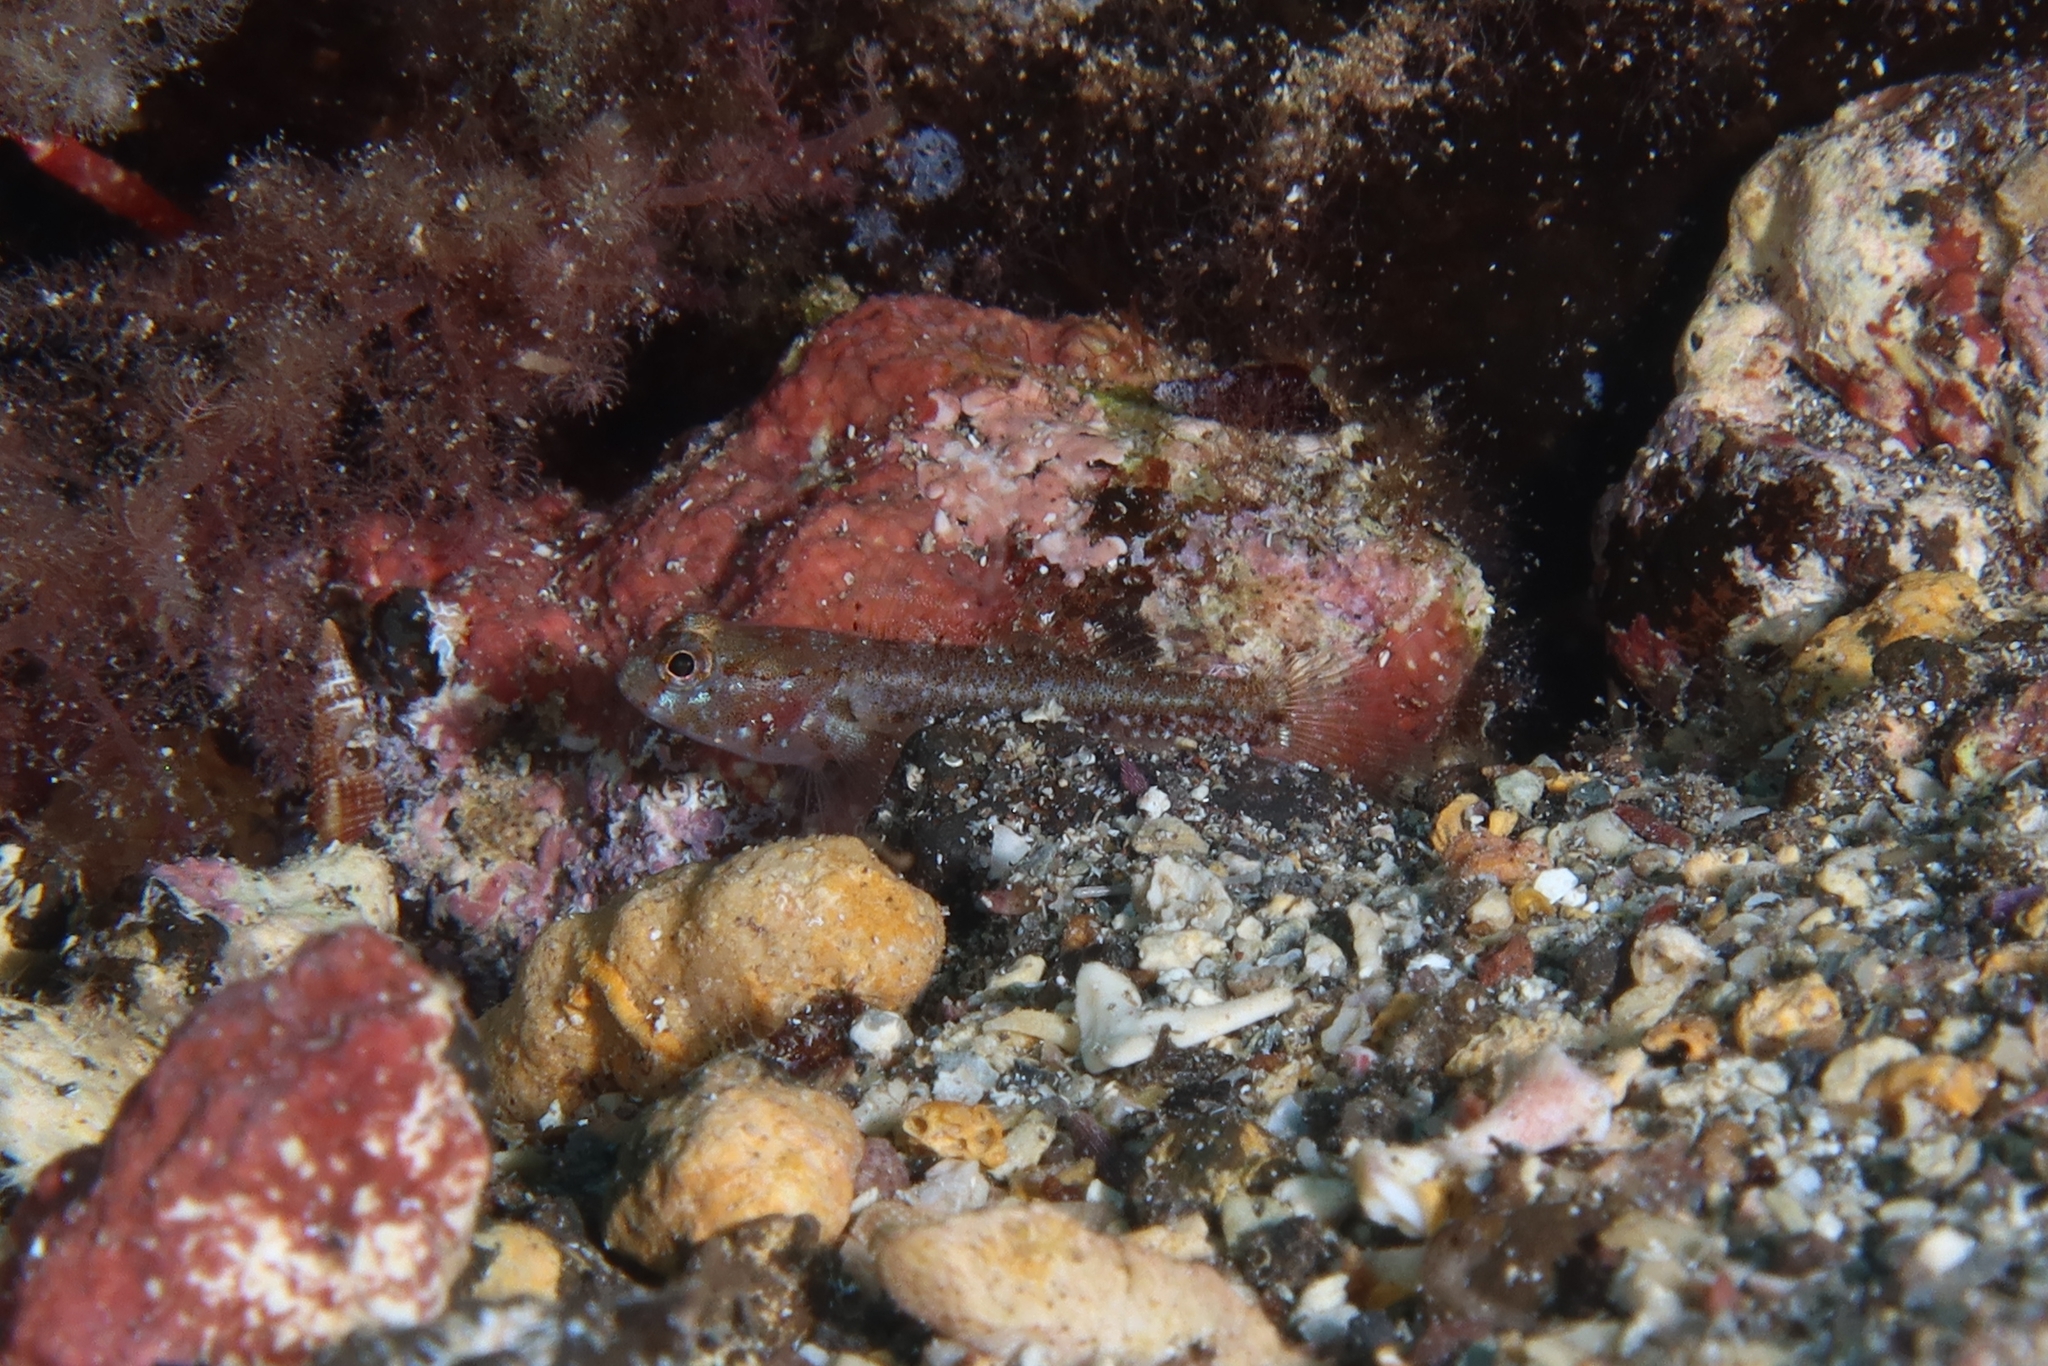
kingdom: Animalia
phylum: Chordata
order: Perciformes
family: Gobiidae
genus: Vanneaugobius
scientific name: Vanneaugobius canariensis
